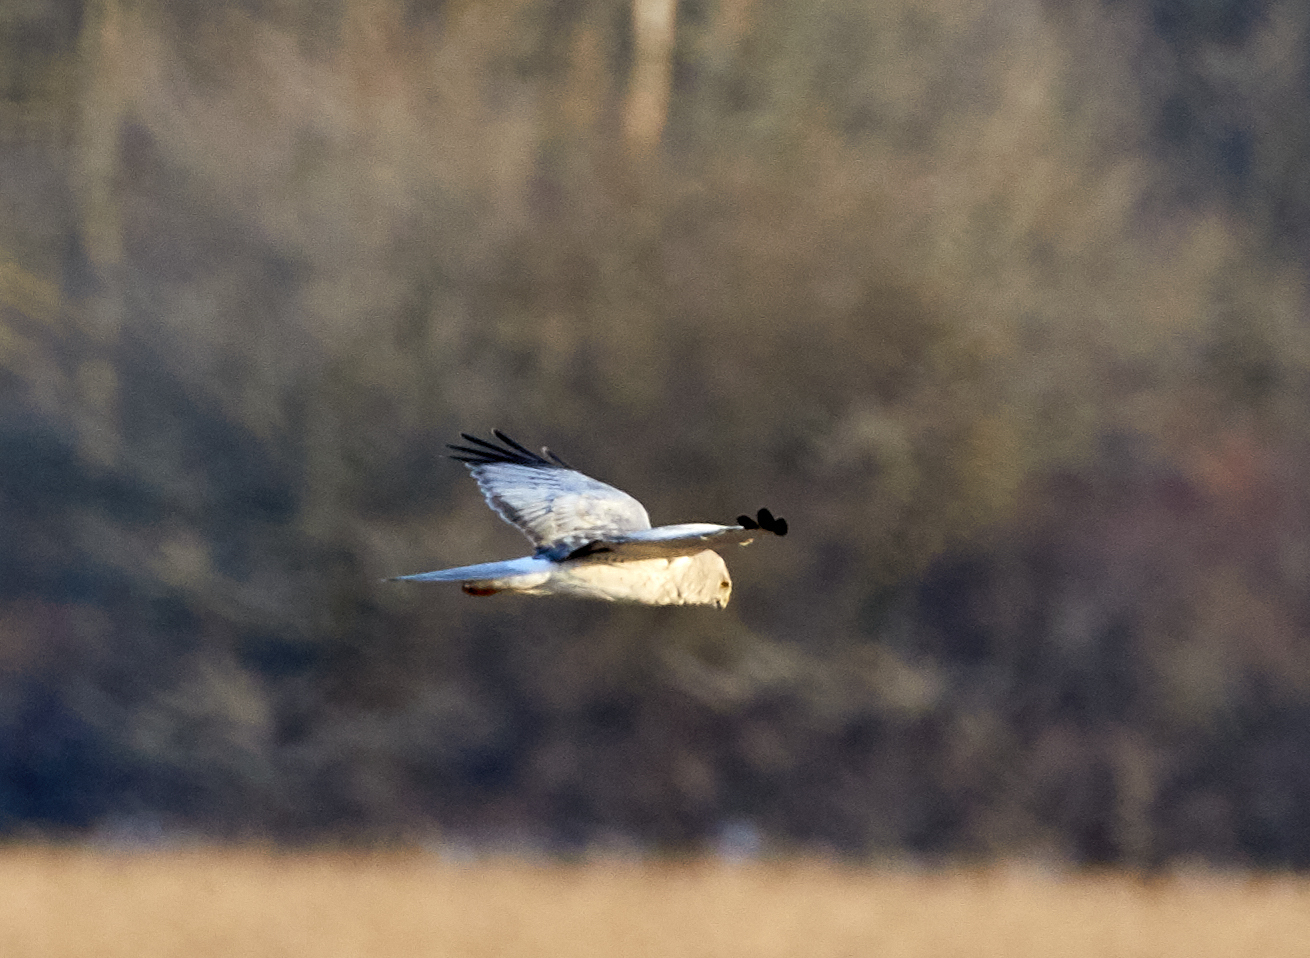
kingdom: Animalia
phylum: Chordata
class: Aves
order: Accipitriformes
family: Accipitridae
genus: Circus
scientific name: Circus cyaneus
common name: Hen harrier
